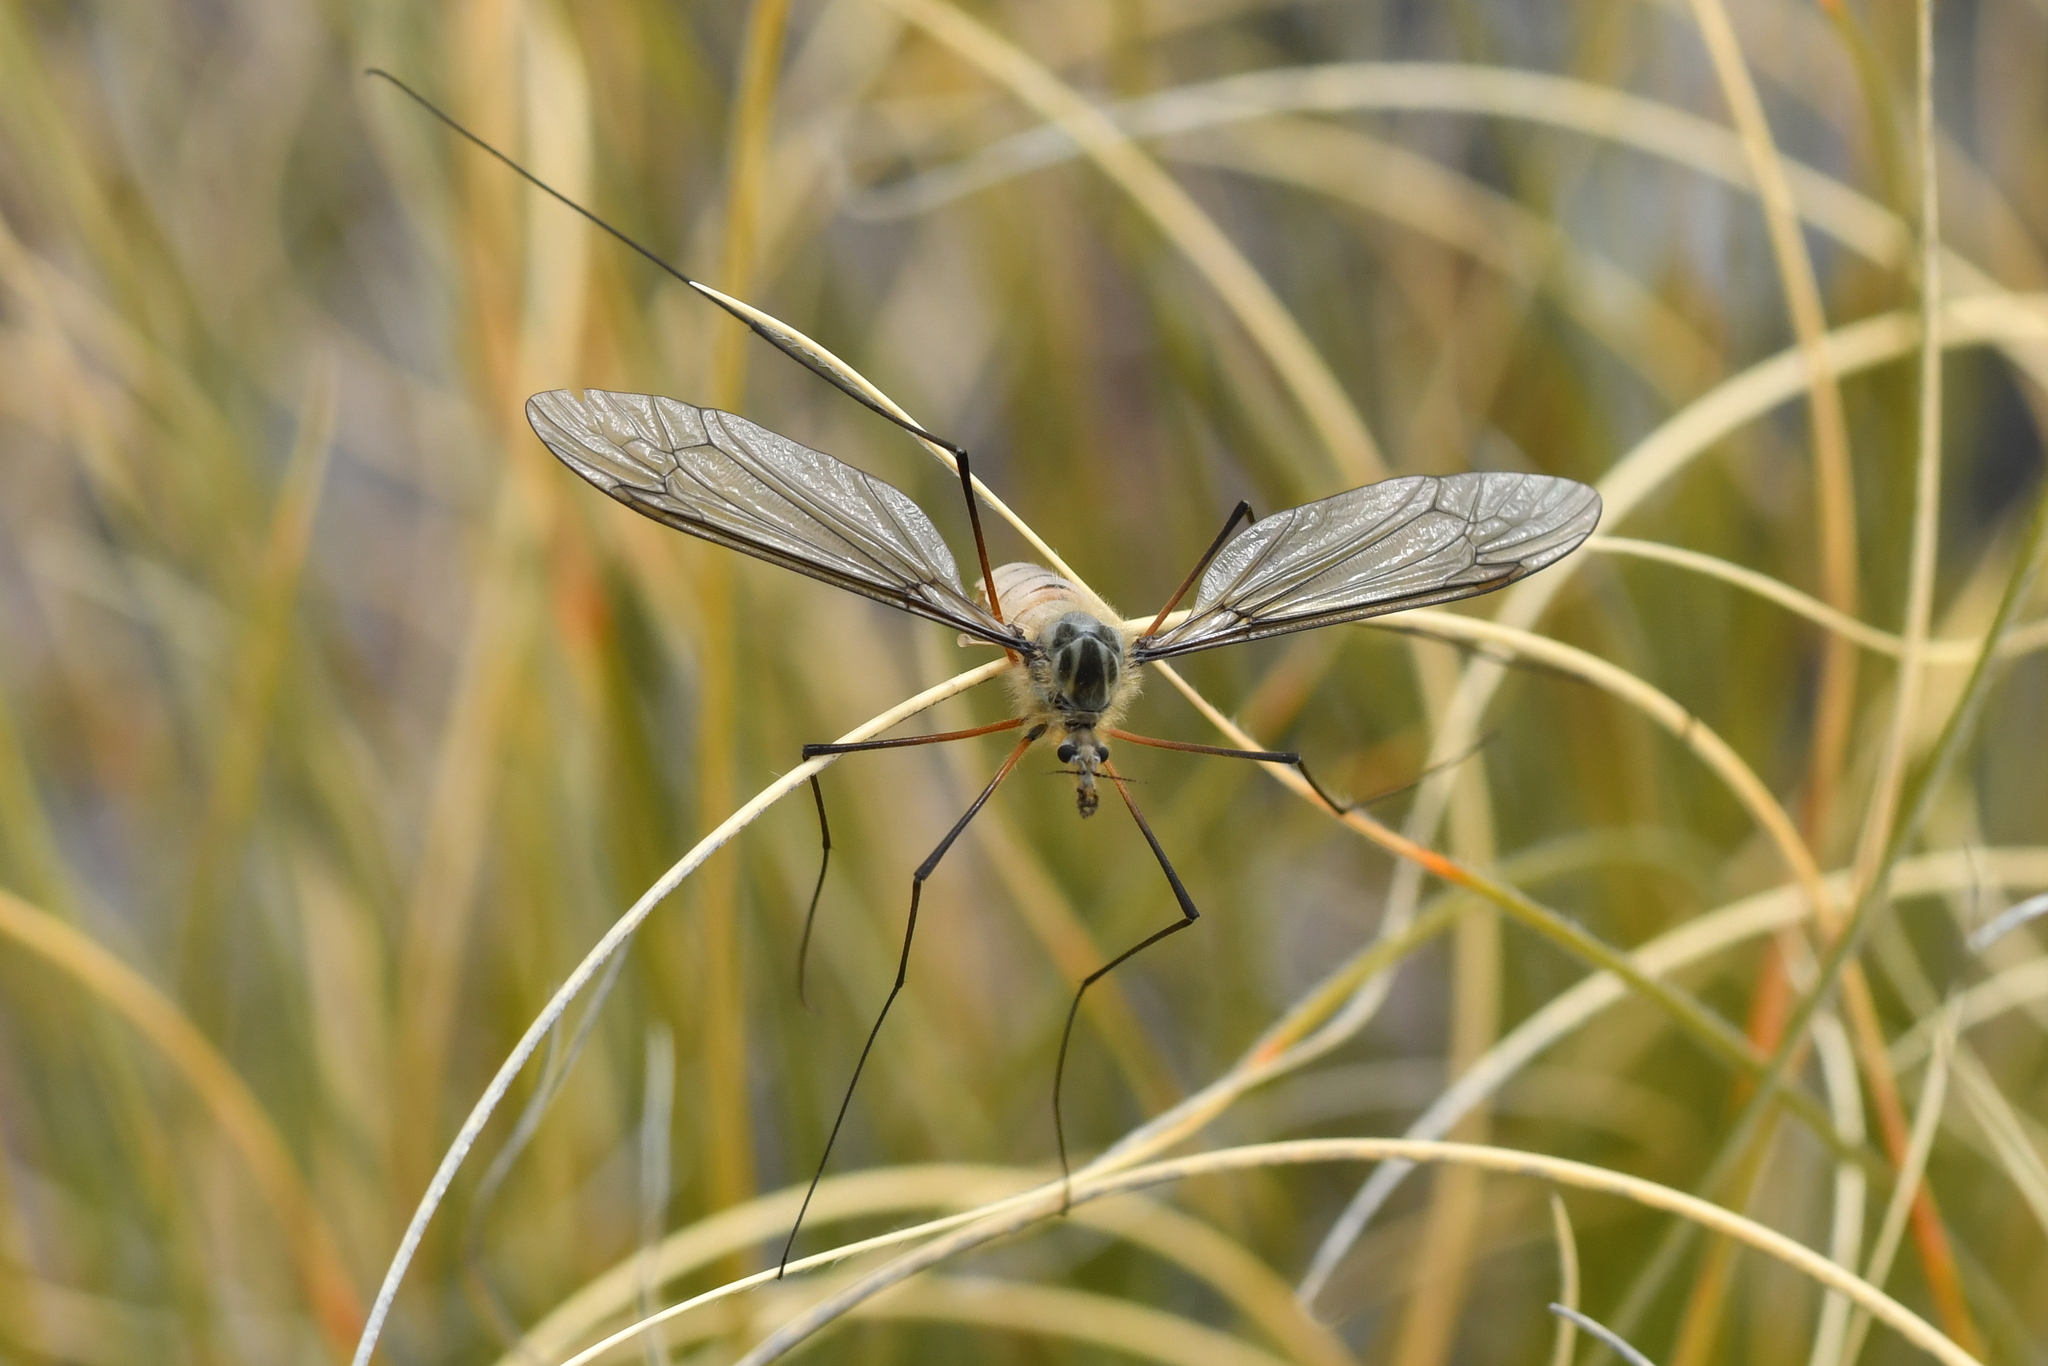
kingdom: Animalia
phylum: Arthropoda
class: Insecta
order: Diptera
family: Tipulidae
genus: Leptotarsus
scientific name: Leptotarsus montanus
